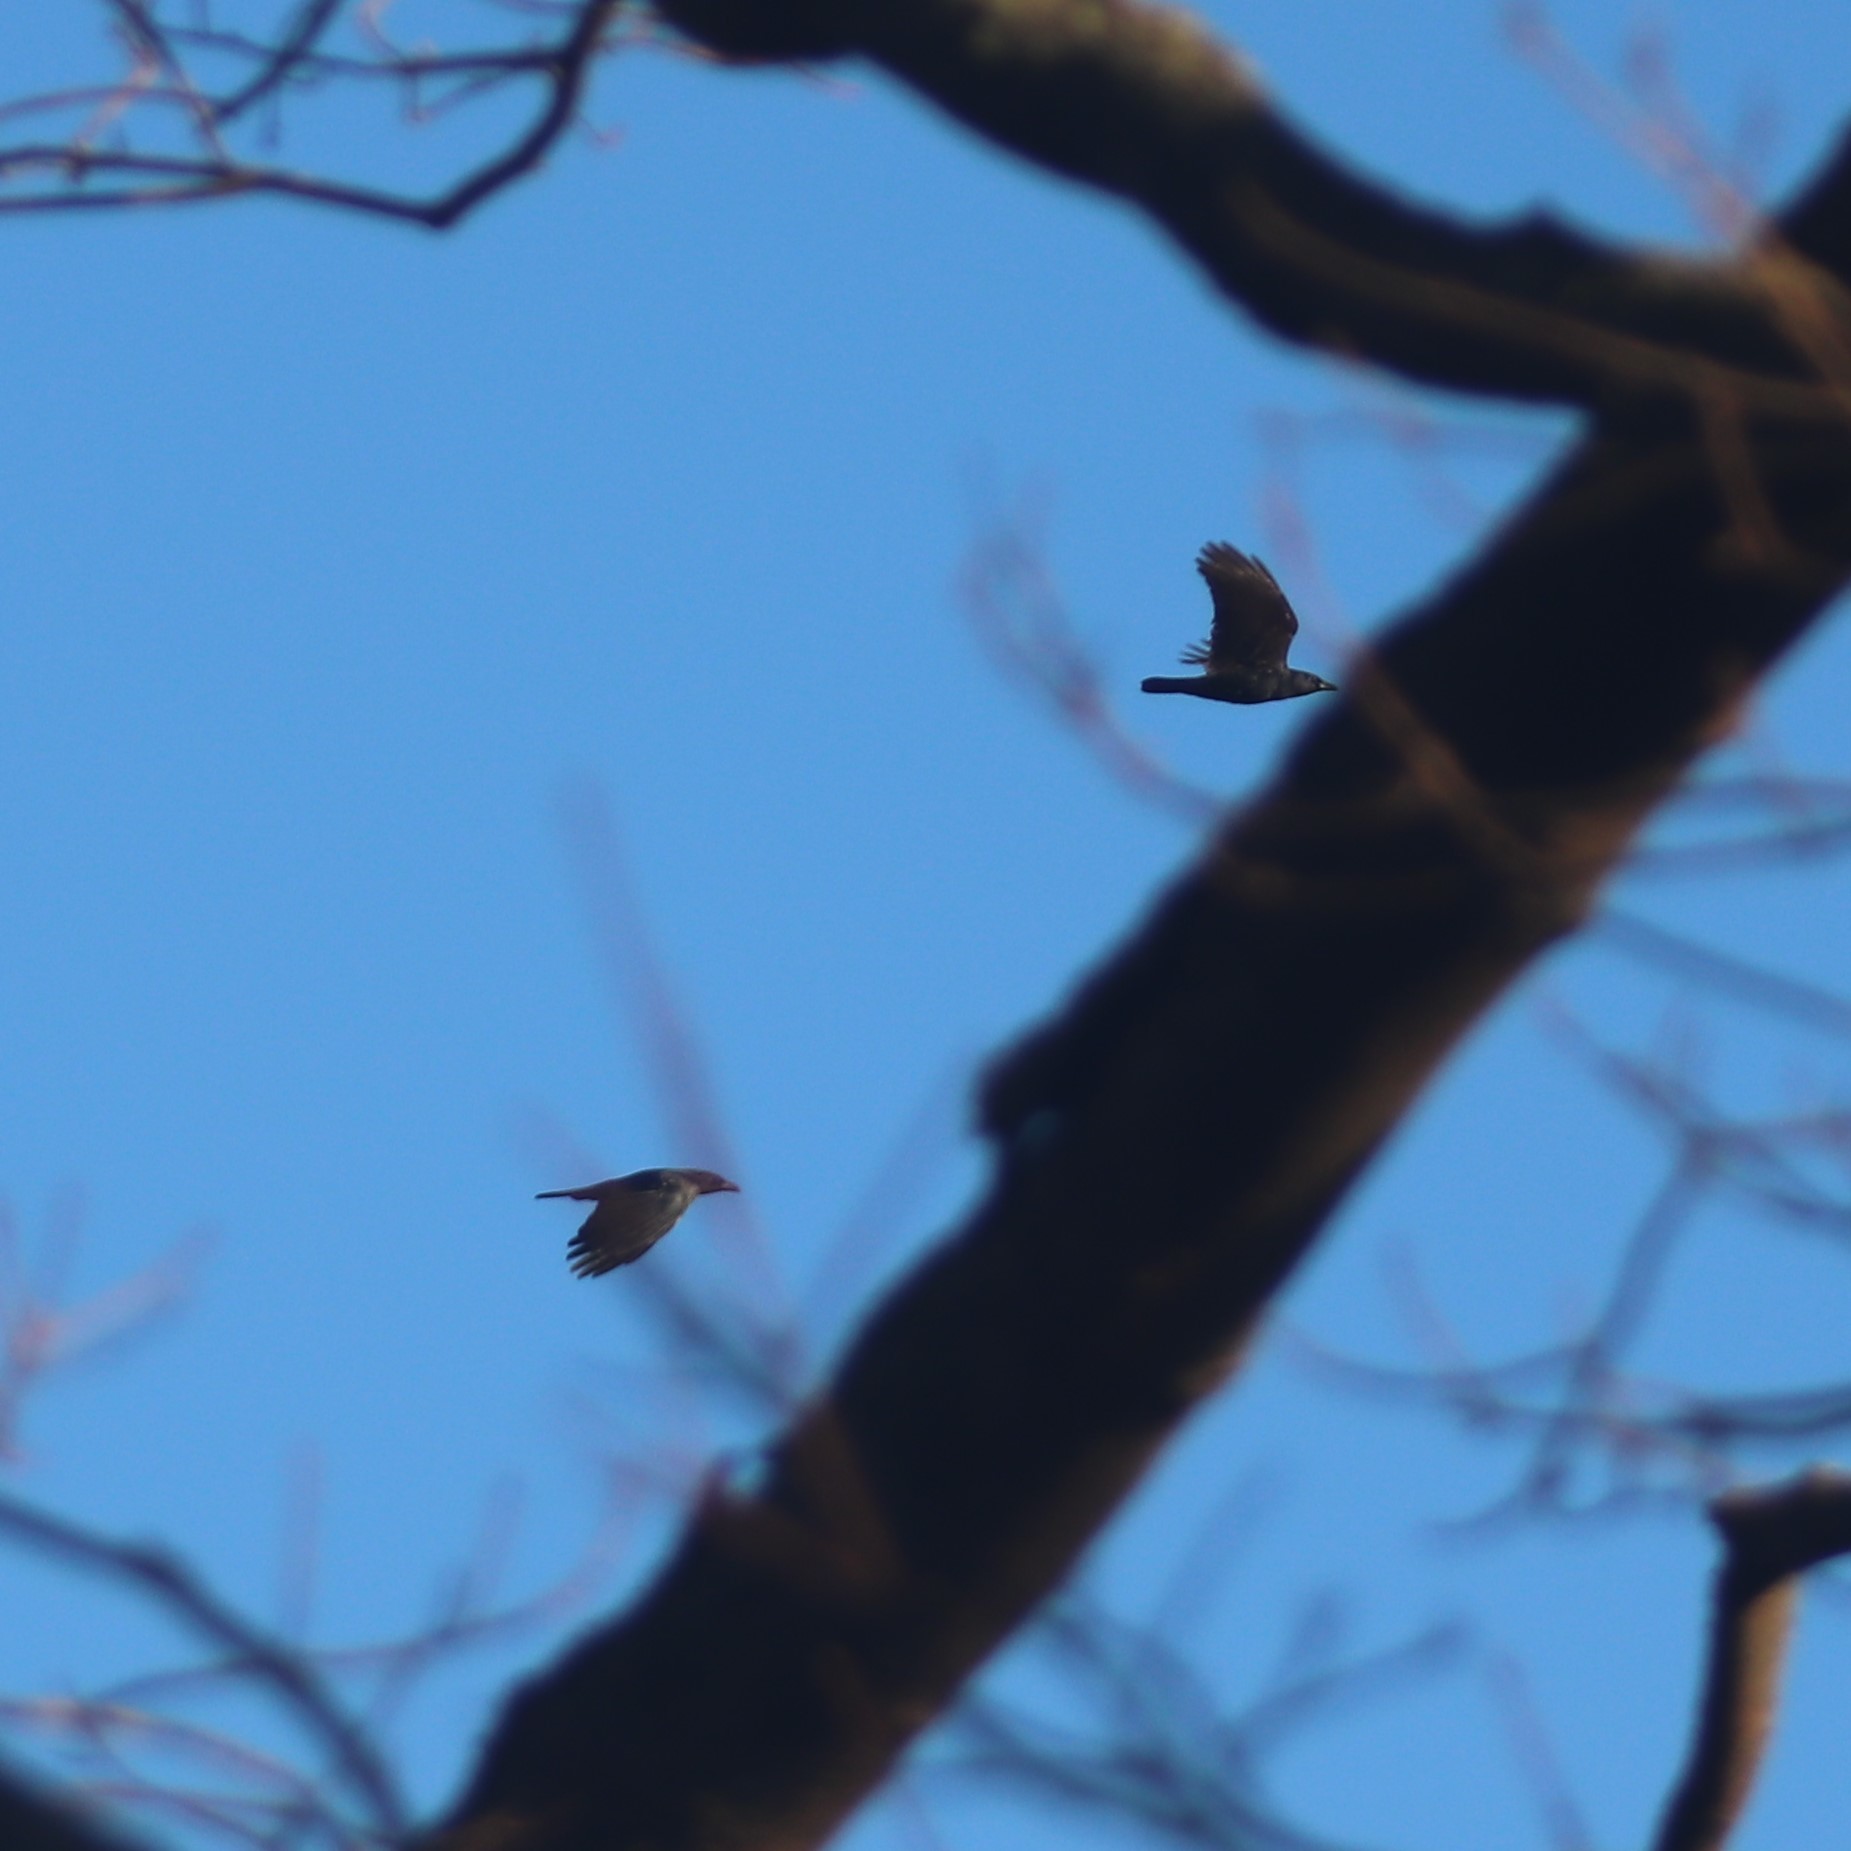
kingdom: Animalia
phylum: Chordata
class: Aves
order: Passeriformes
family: Corvidae
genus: Corvus
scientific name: Corvus brachyrhynchos
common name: American crow
